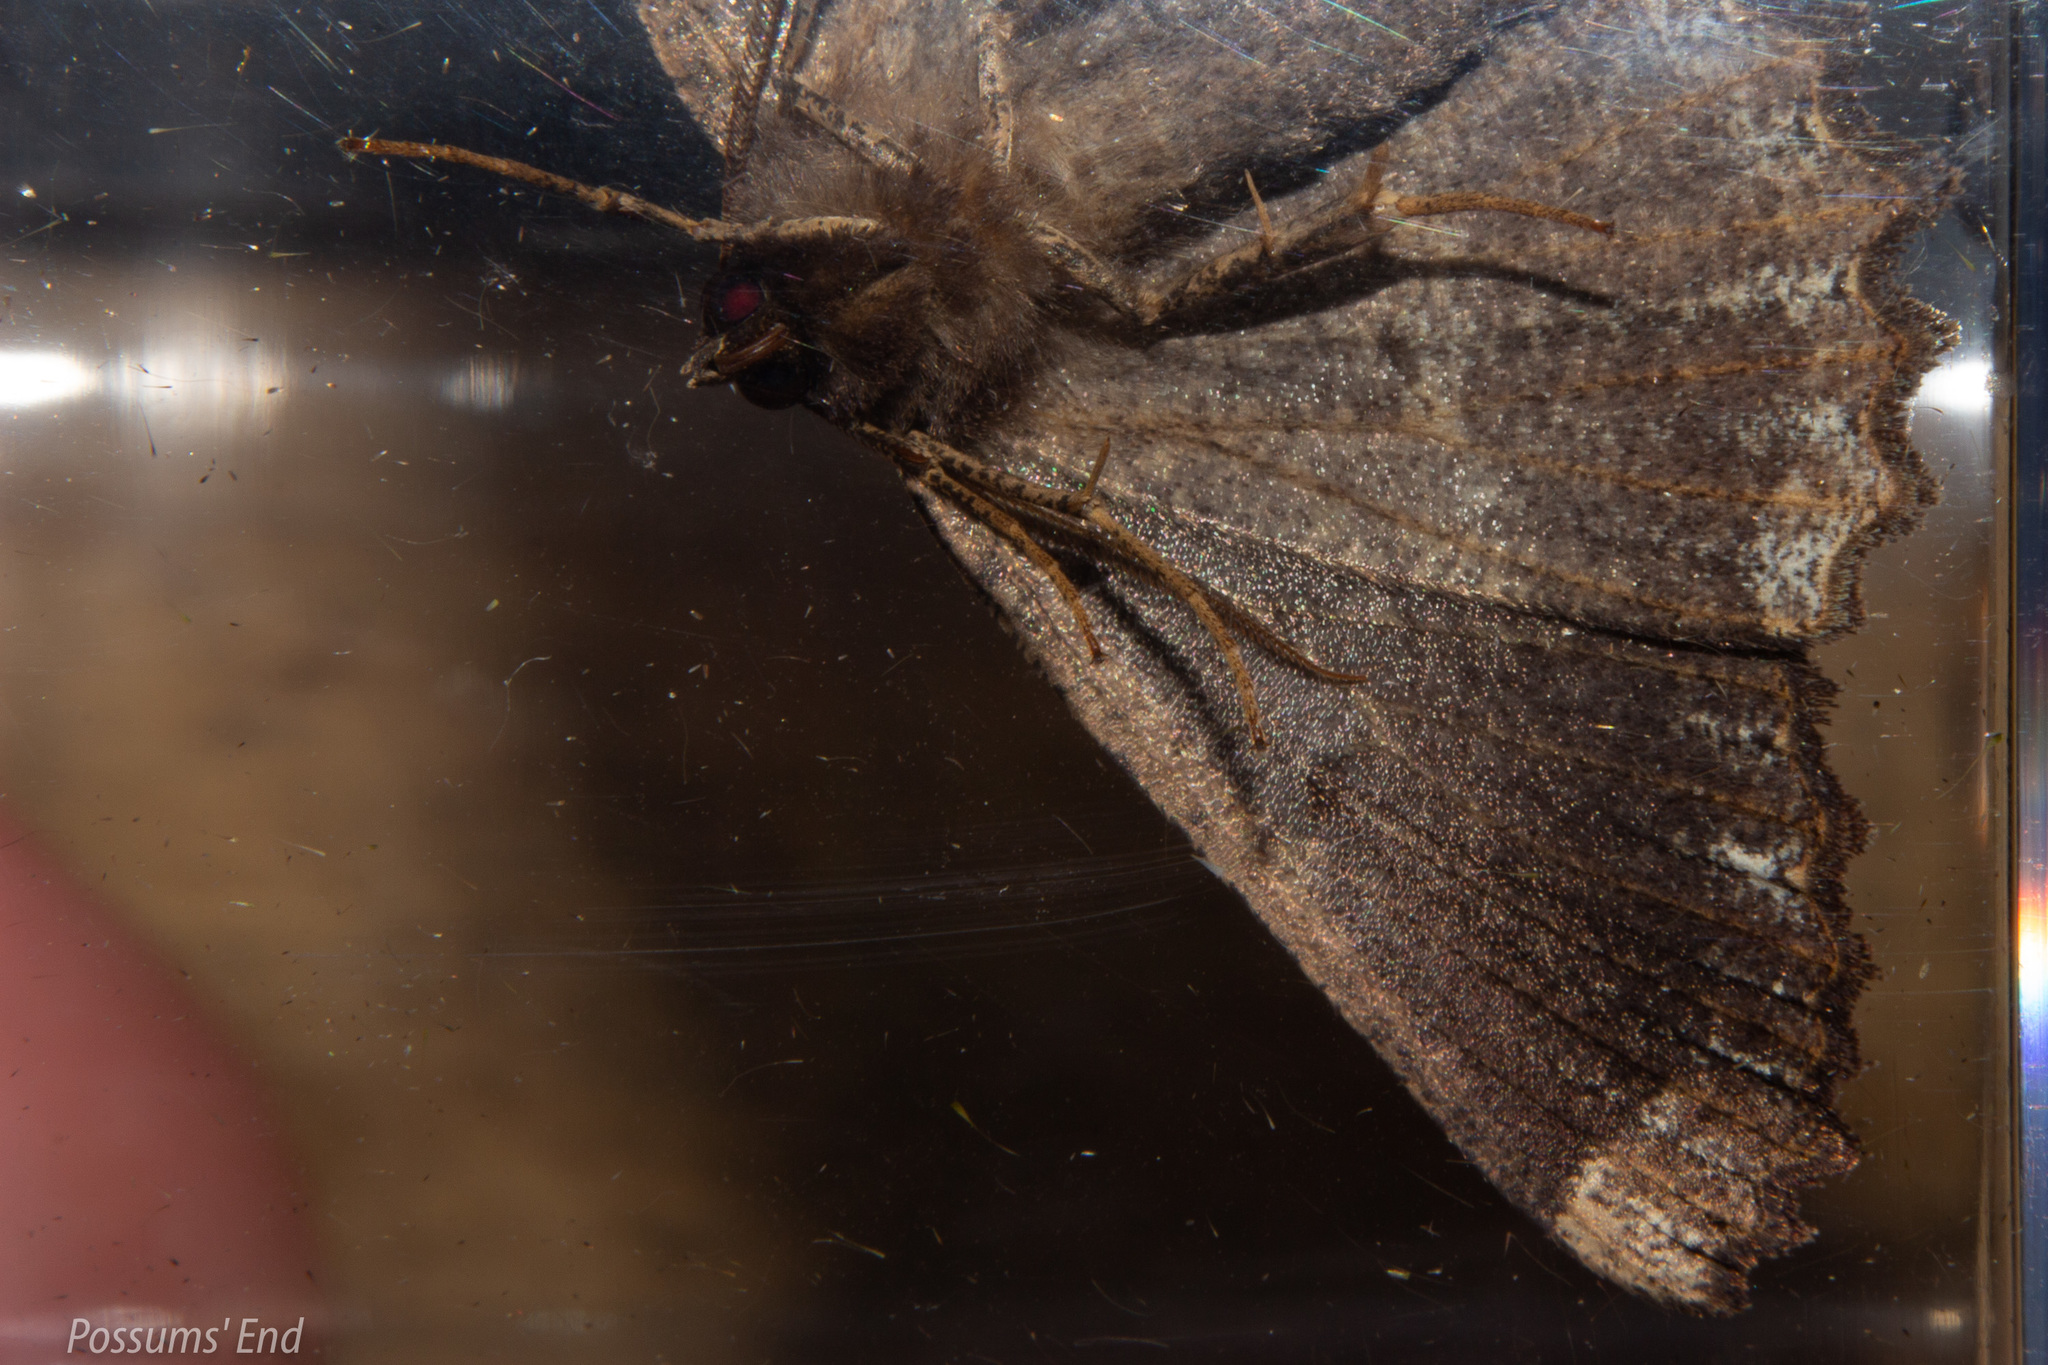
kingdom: Animalia
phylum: Arthropoda
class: Insecta
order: Lepidoptera
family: Geometridae
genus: Gellonia
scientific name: Gellonia dejectaria
